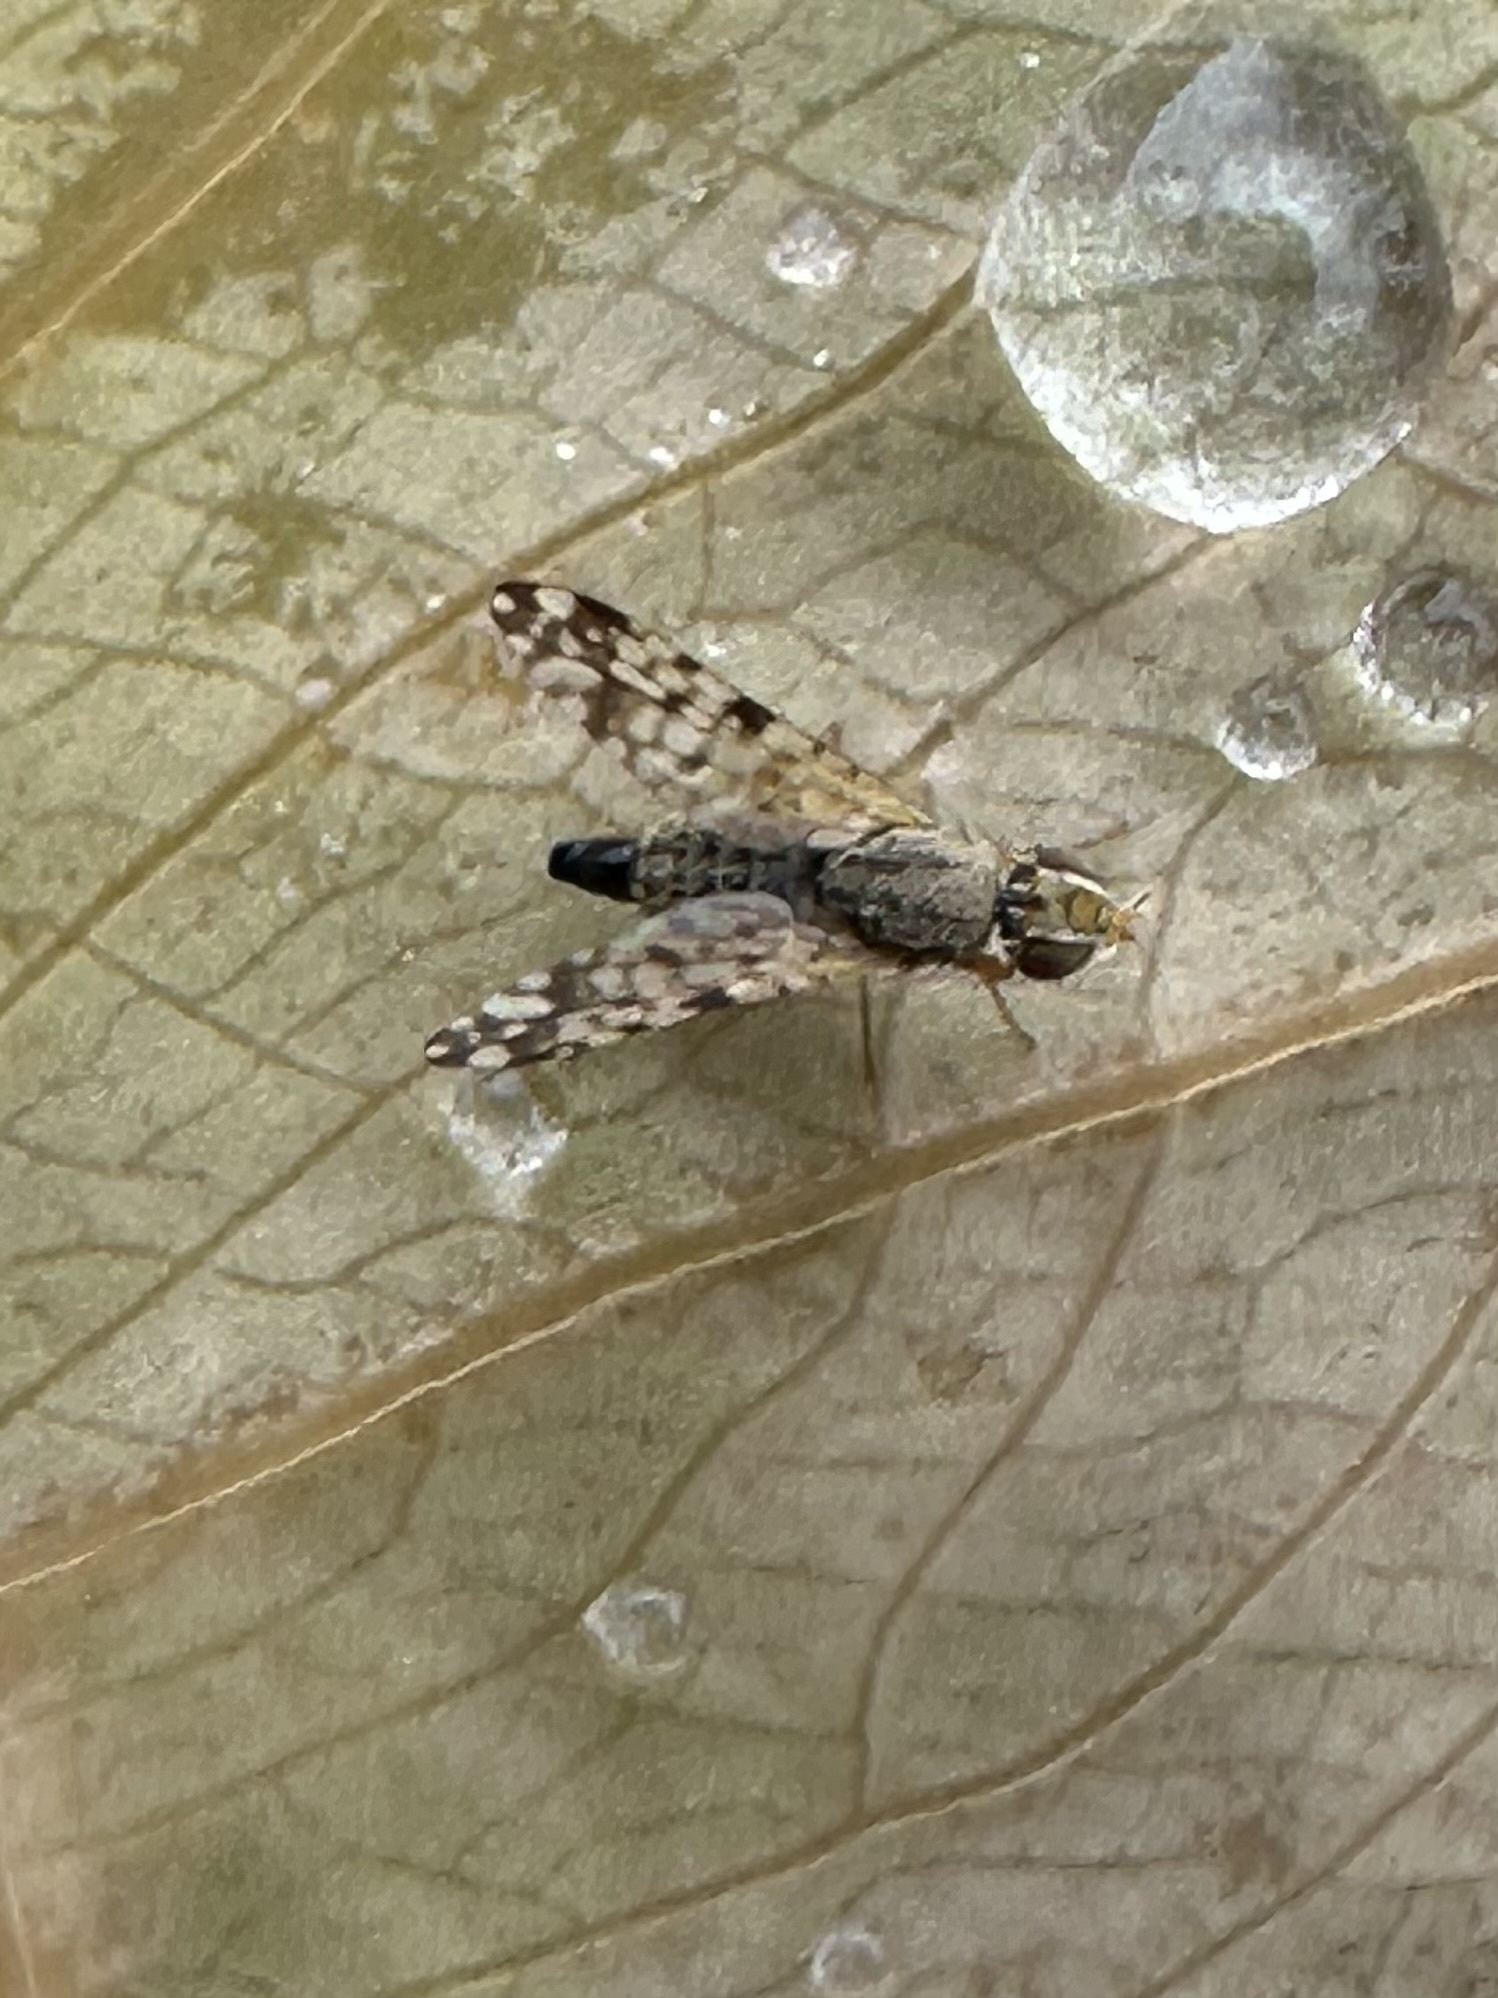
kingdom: Animalia
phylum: Arthropoda
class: Insecta
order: Diptera
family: Tephritidae
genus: Dioxyna
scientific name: Dioxyna picciola
